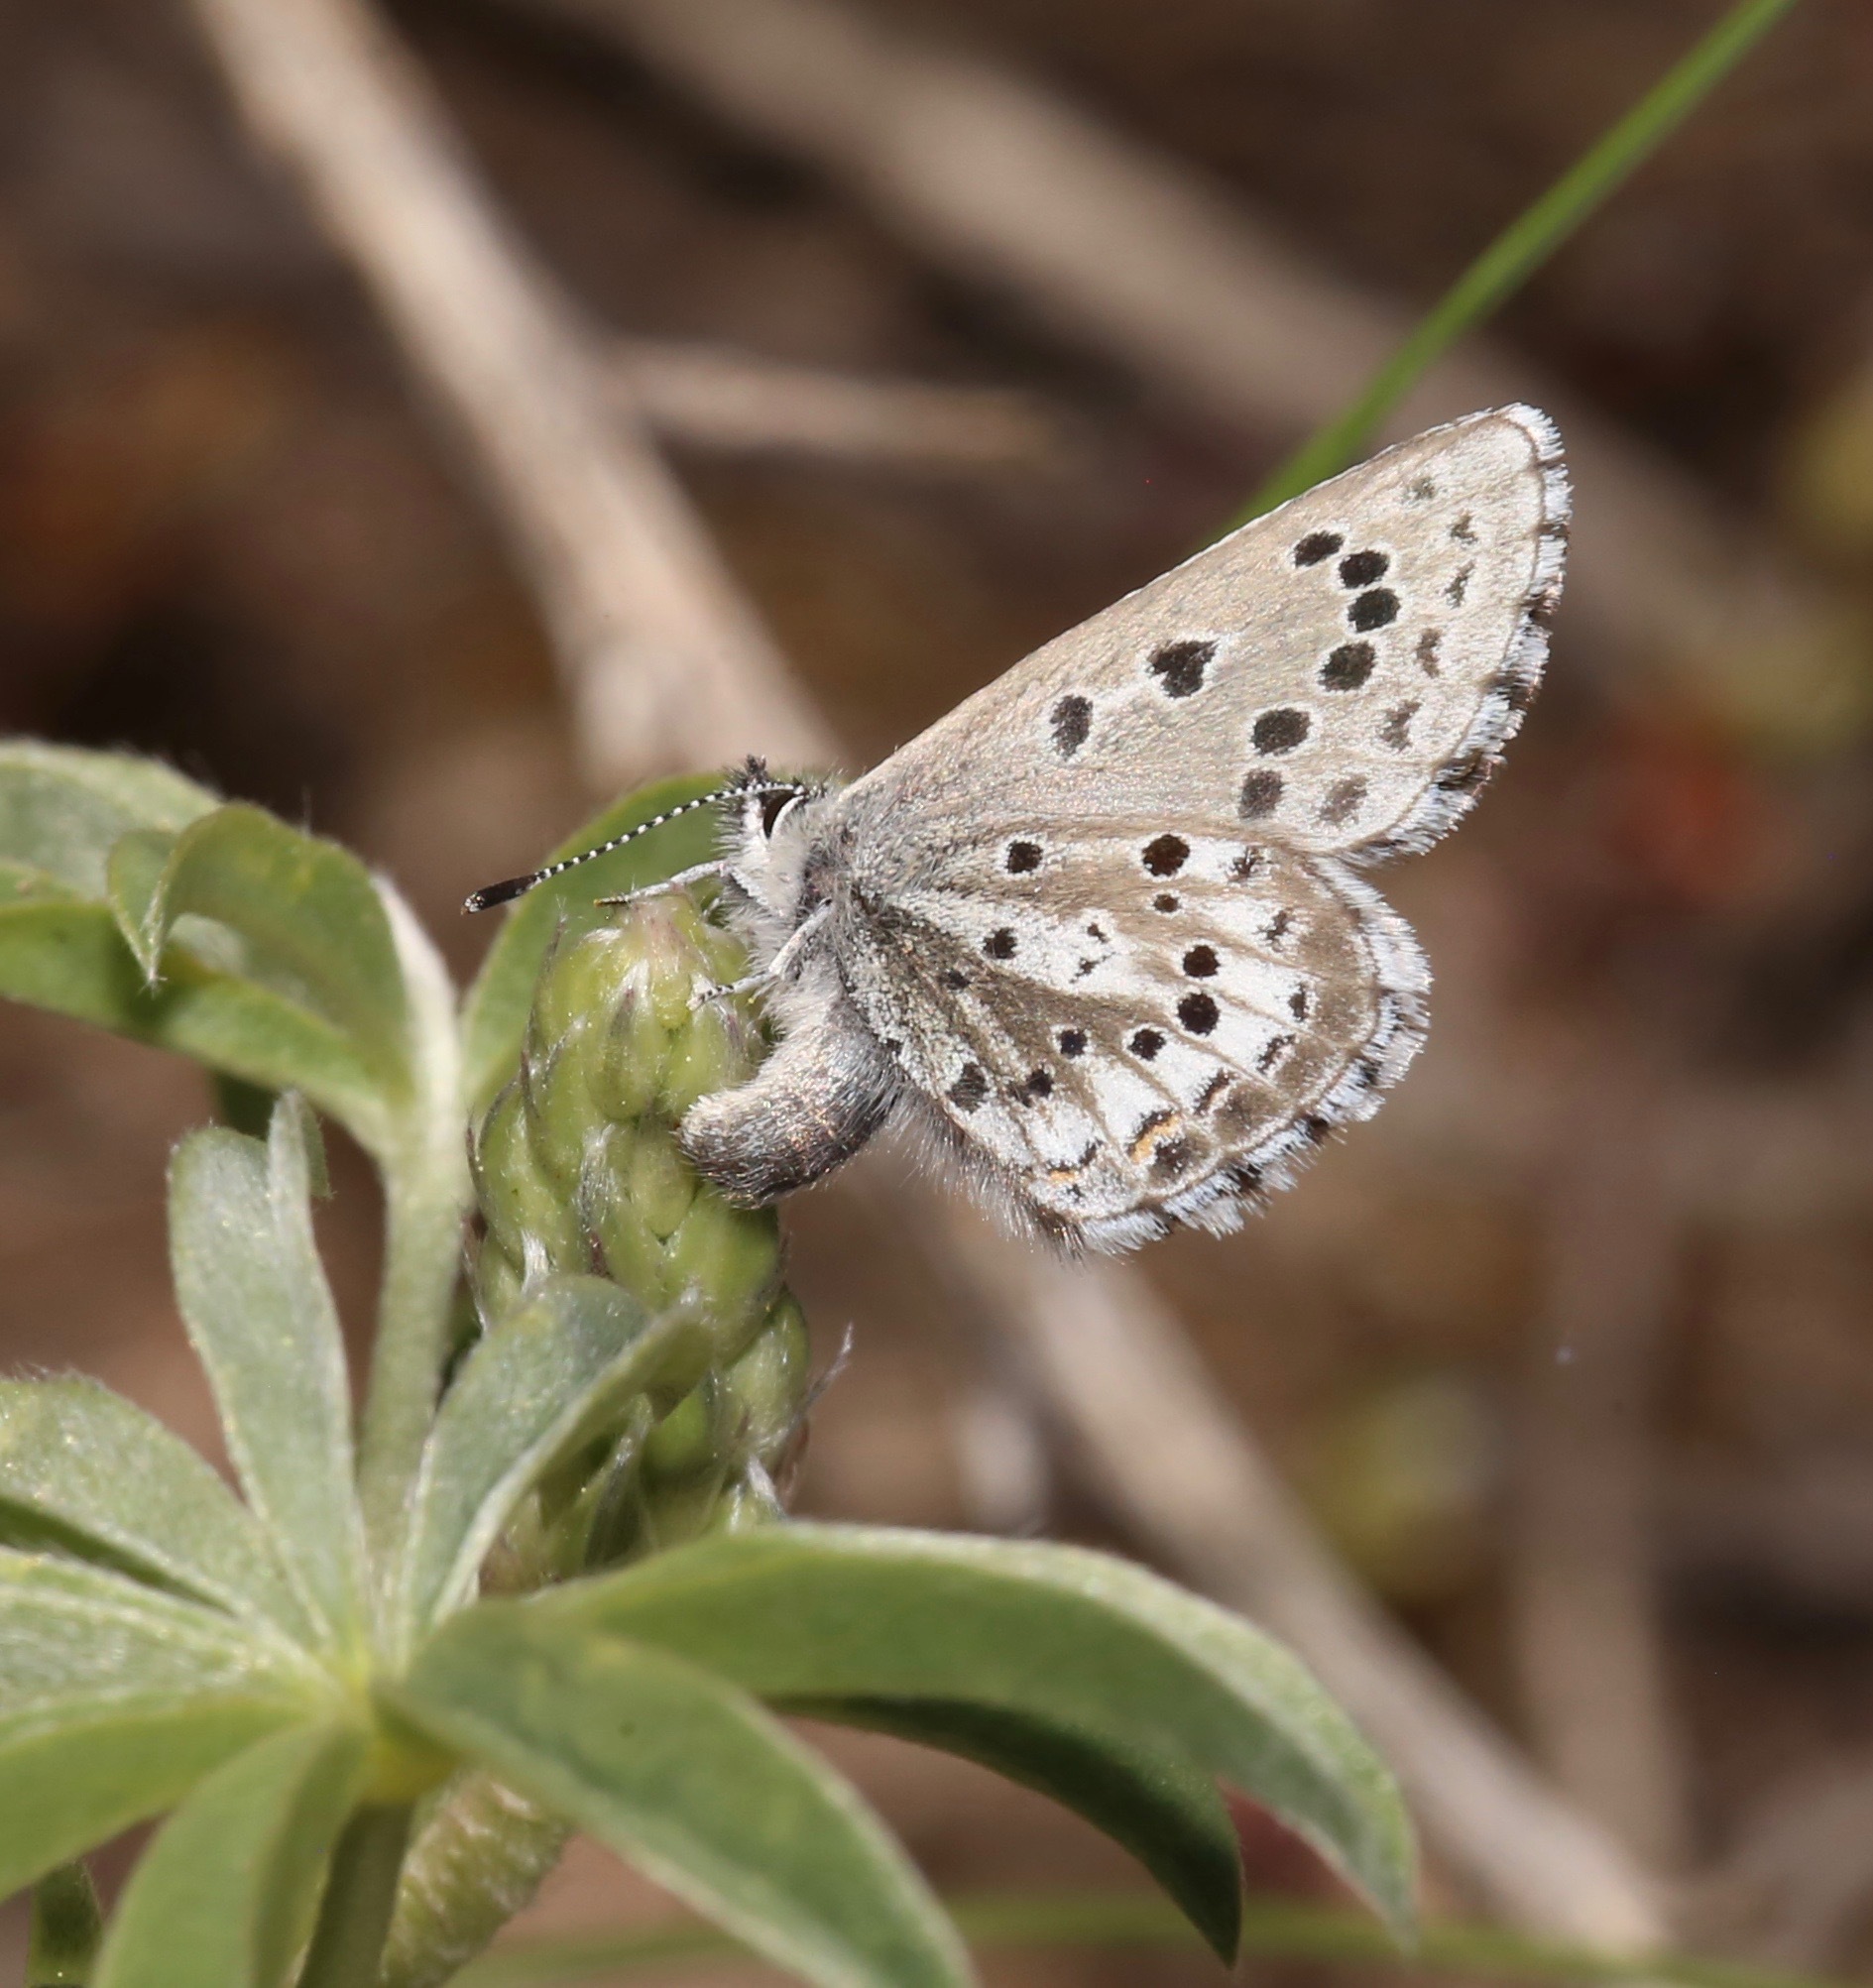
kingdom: Animalia
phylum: Arthropoda
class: Insecta
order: Lepidoptera
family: Lycaenidae
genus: Glaucopsyche
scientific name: Glaucopsyche piasus
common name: Arrowhead blue
